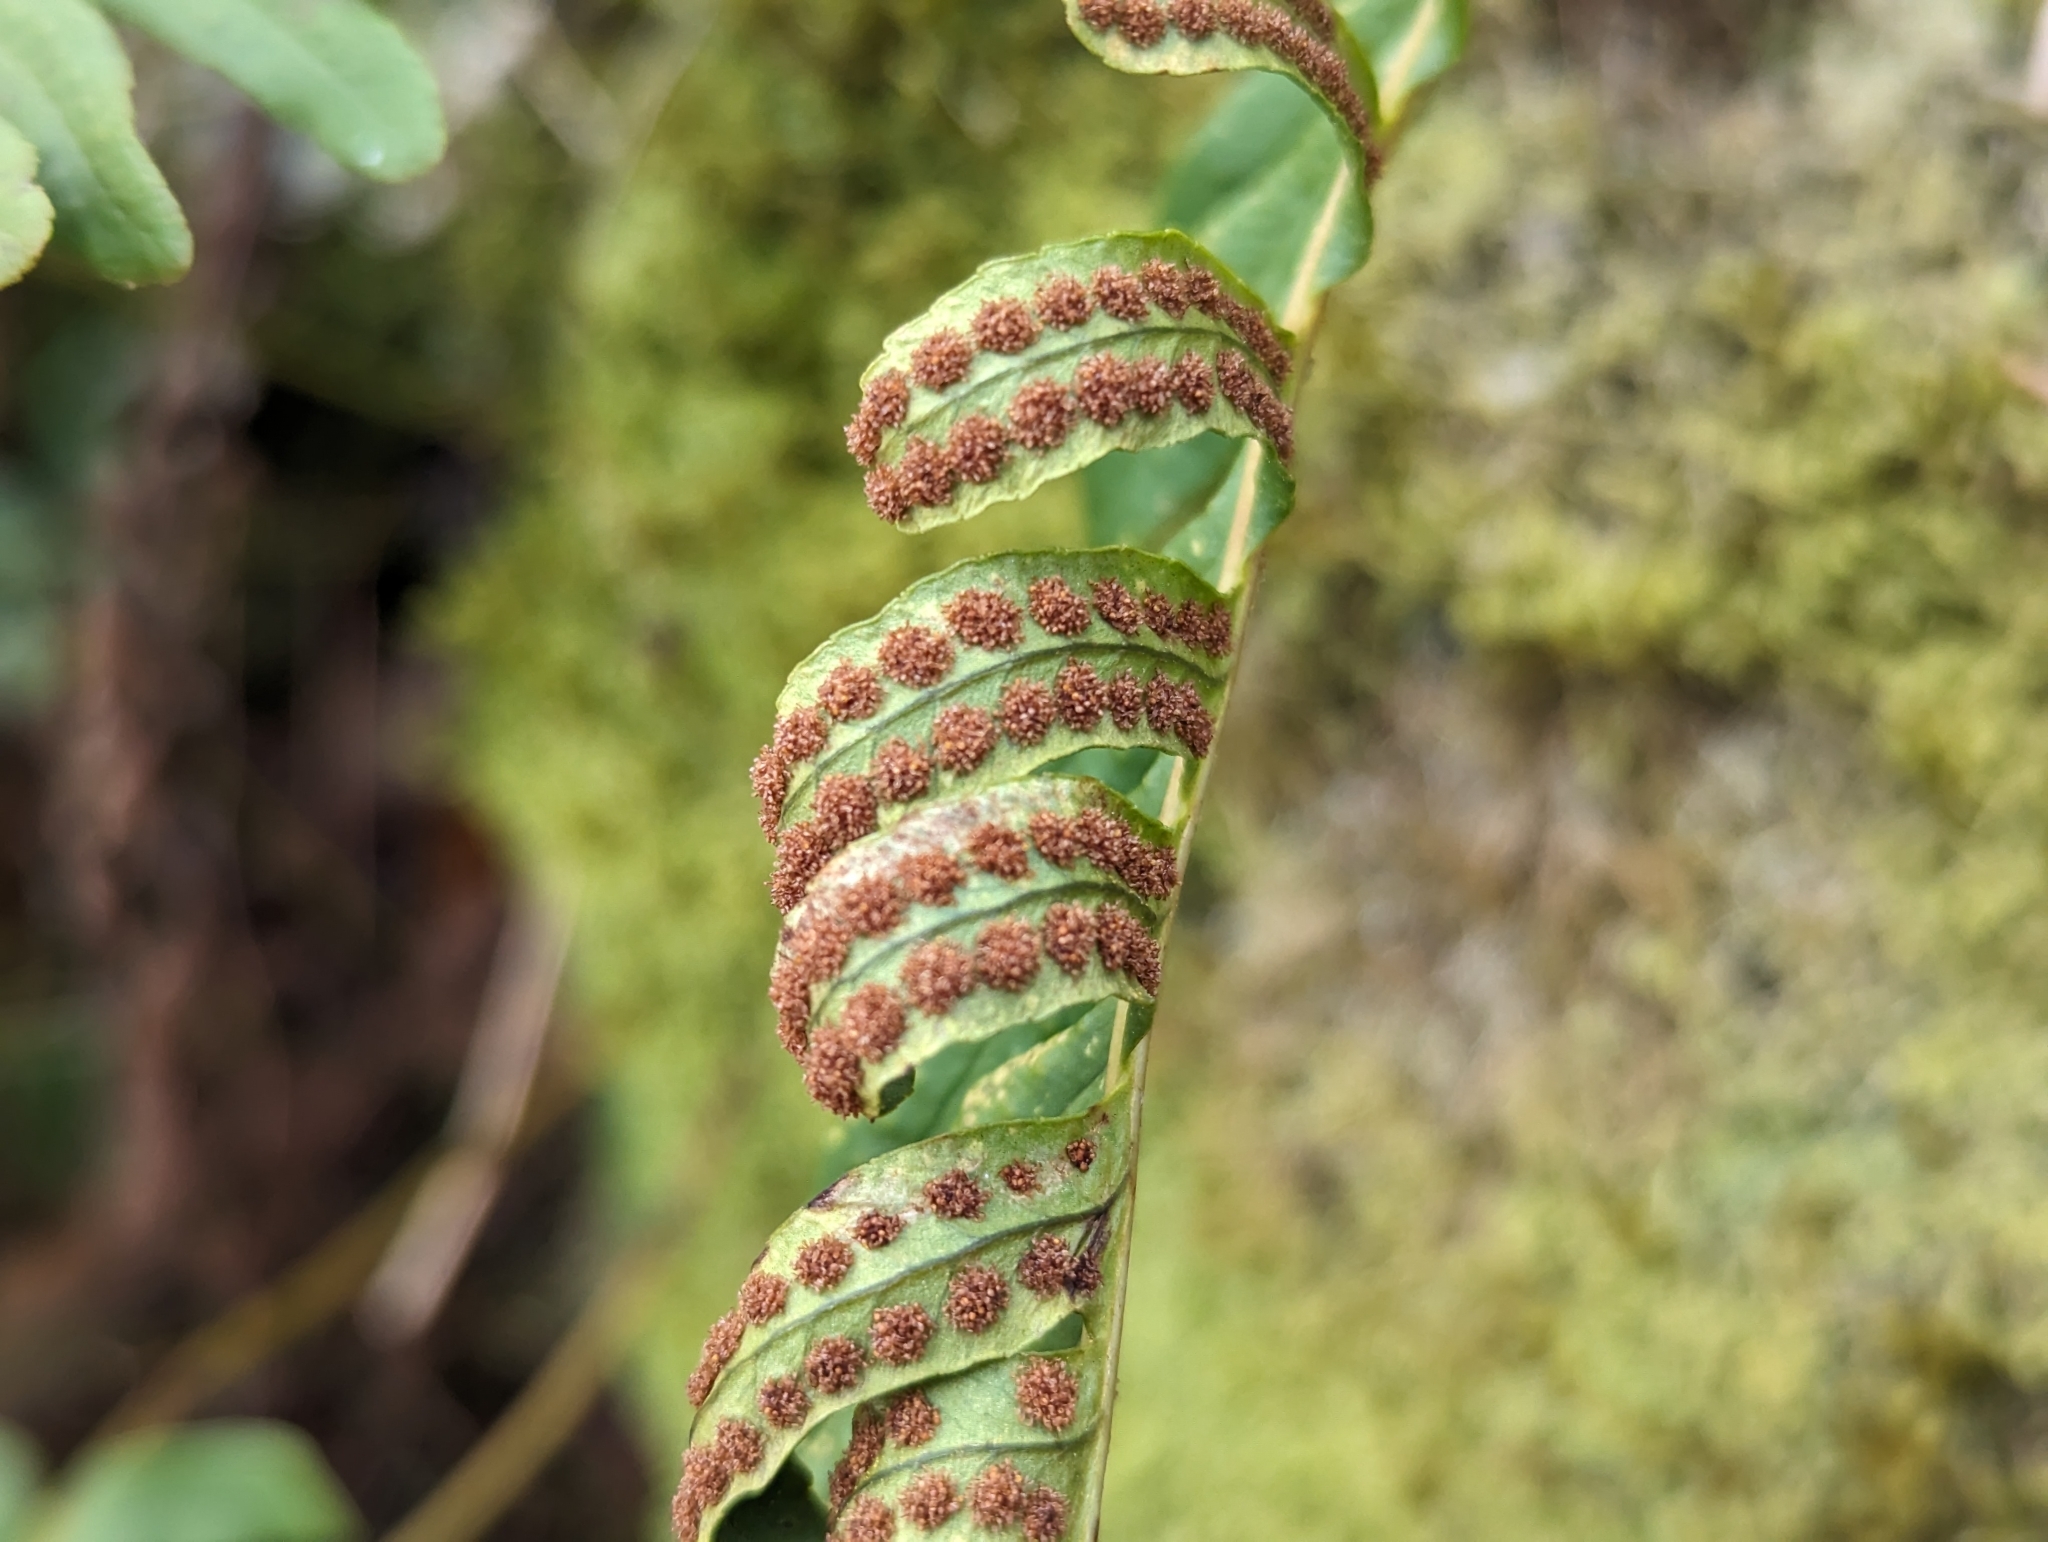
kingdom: Plantae
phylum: Tracheophyta
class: Polypodiopsida
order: Polypodiales
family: Polypodiaceae
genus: Polypodium
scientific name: Polypodium vulgare
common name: Common polypody
